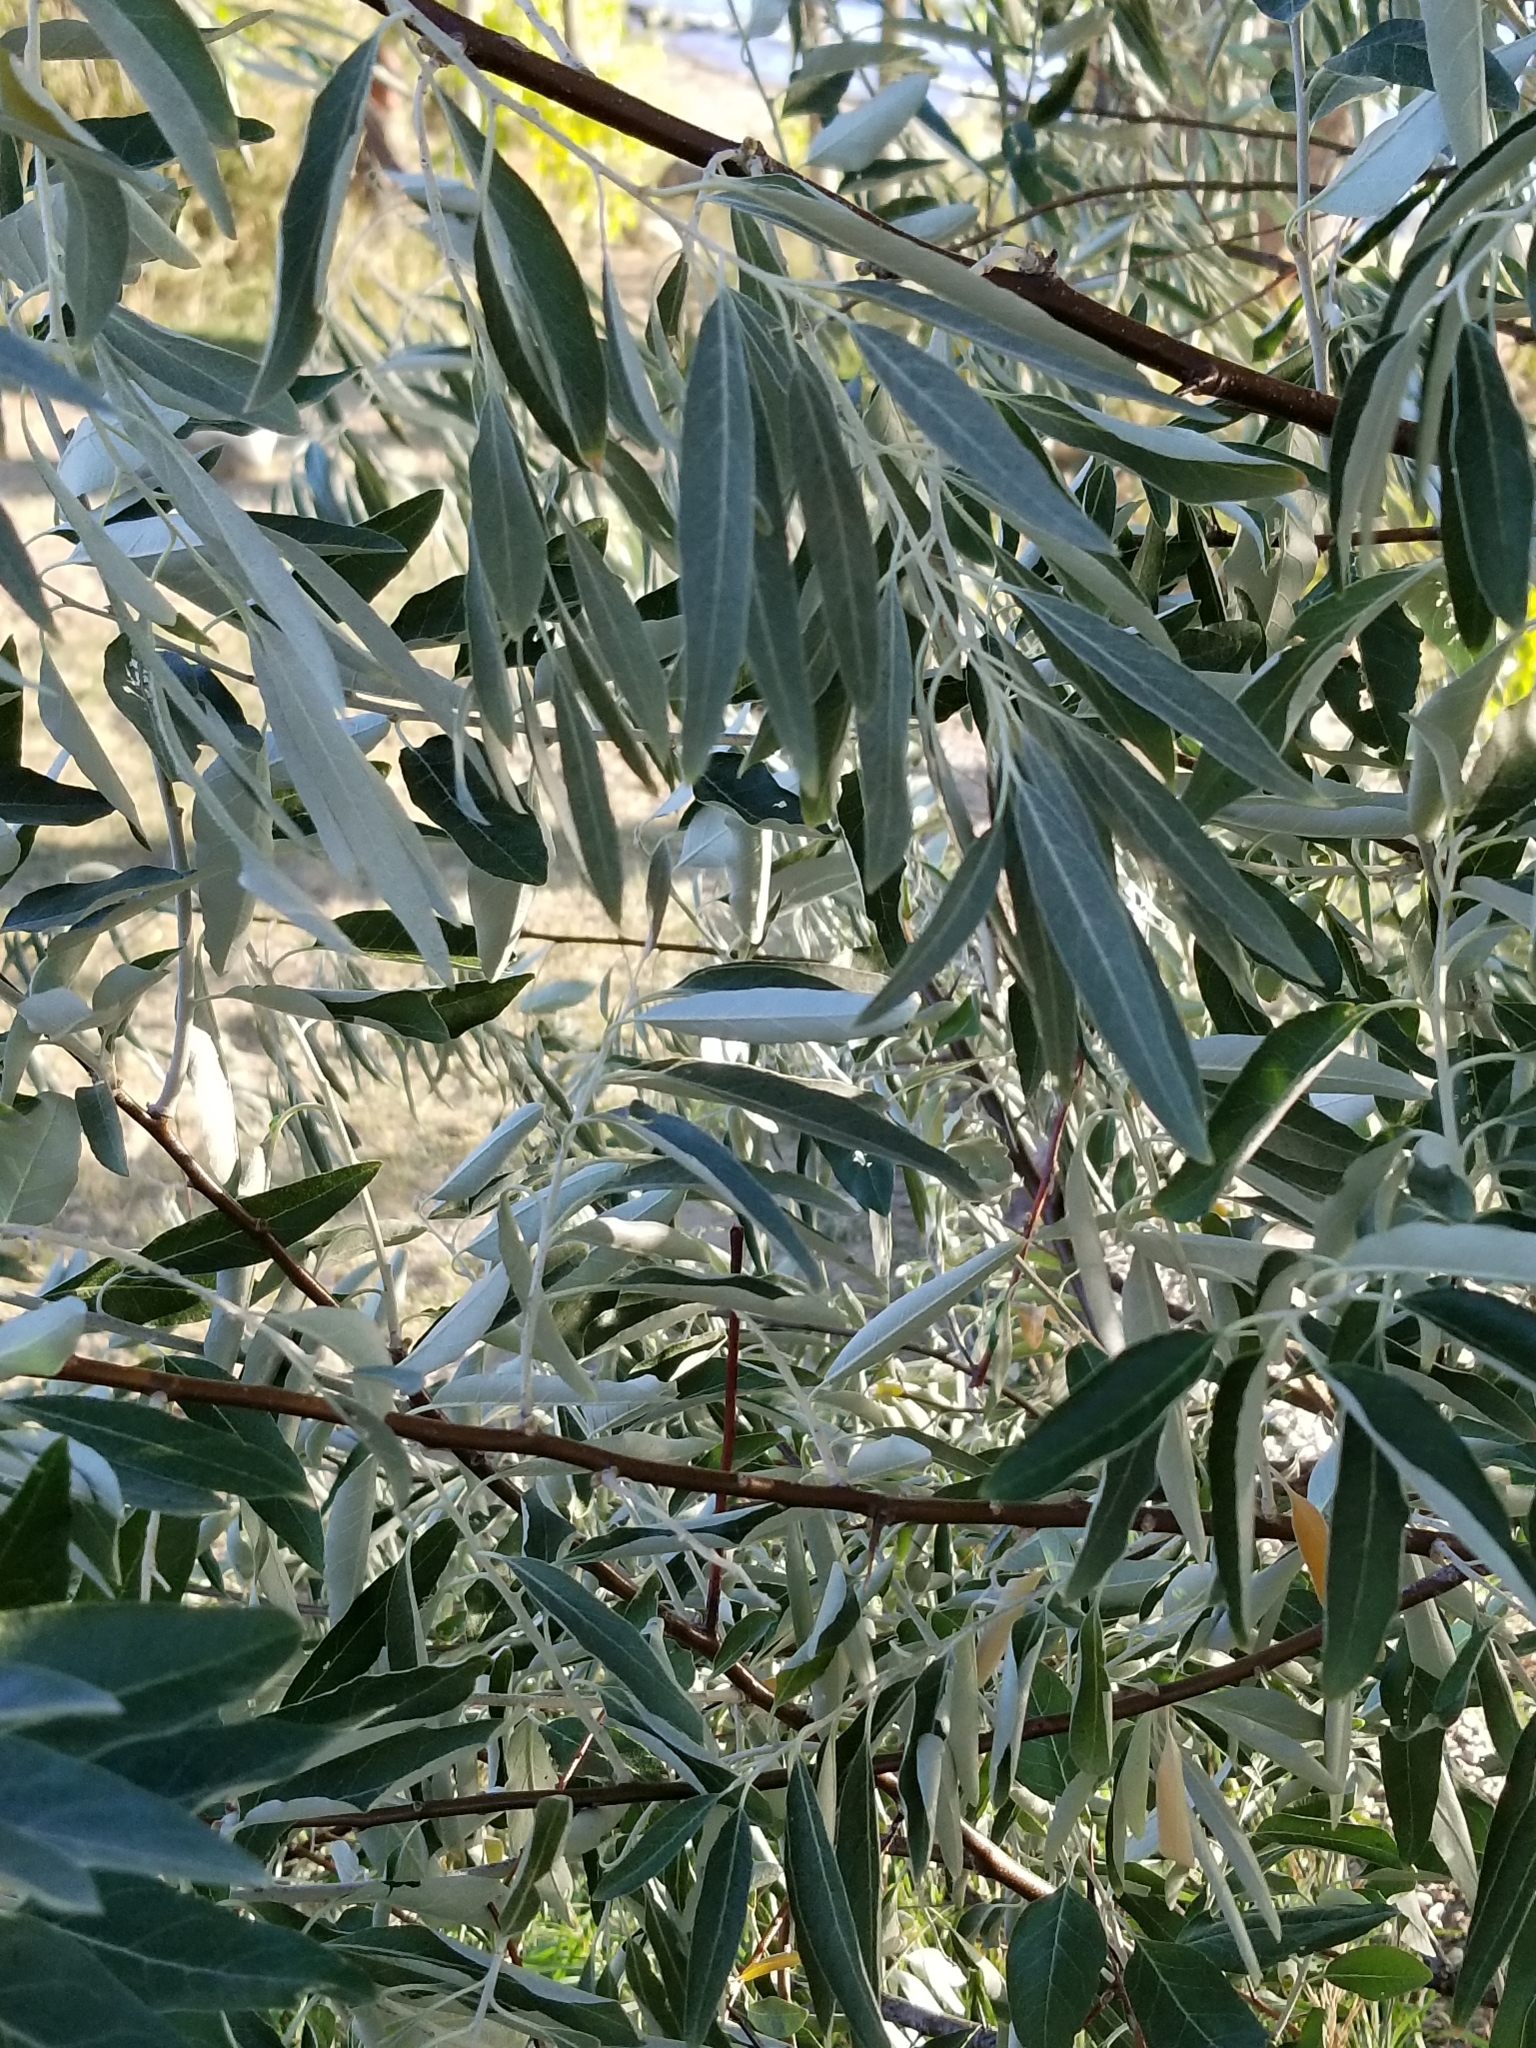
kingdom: Plantae
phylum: Tracheophyta
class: Magnoliopsida
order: Rosales
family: Elaeagnaceae
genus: Elaeagnus
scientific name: Elaeagnus angustifolia
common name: Russian olive
